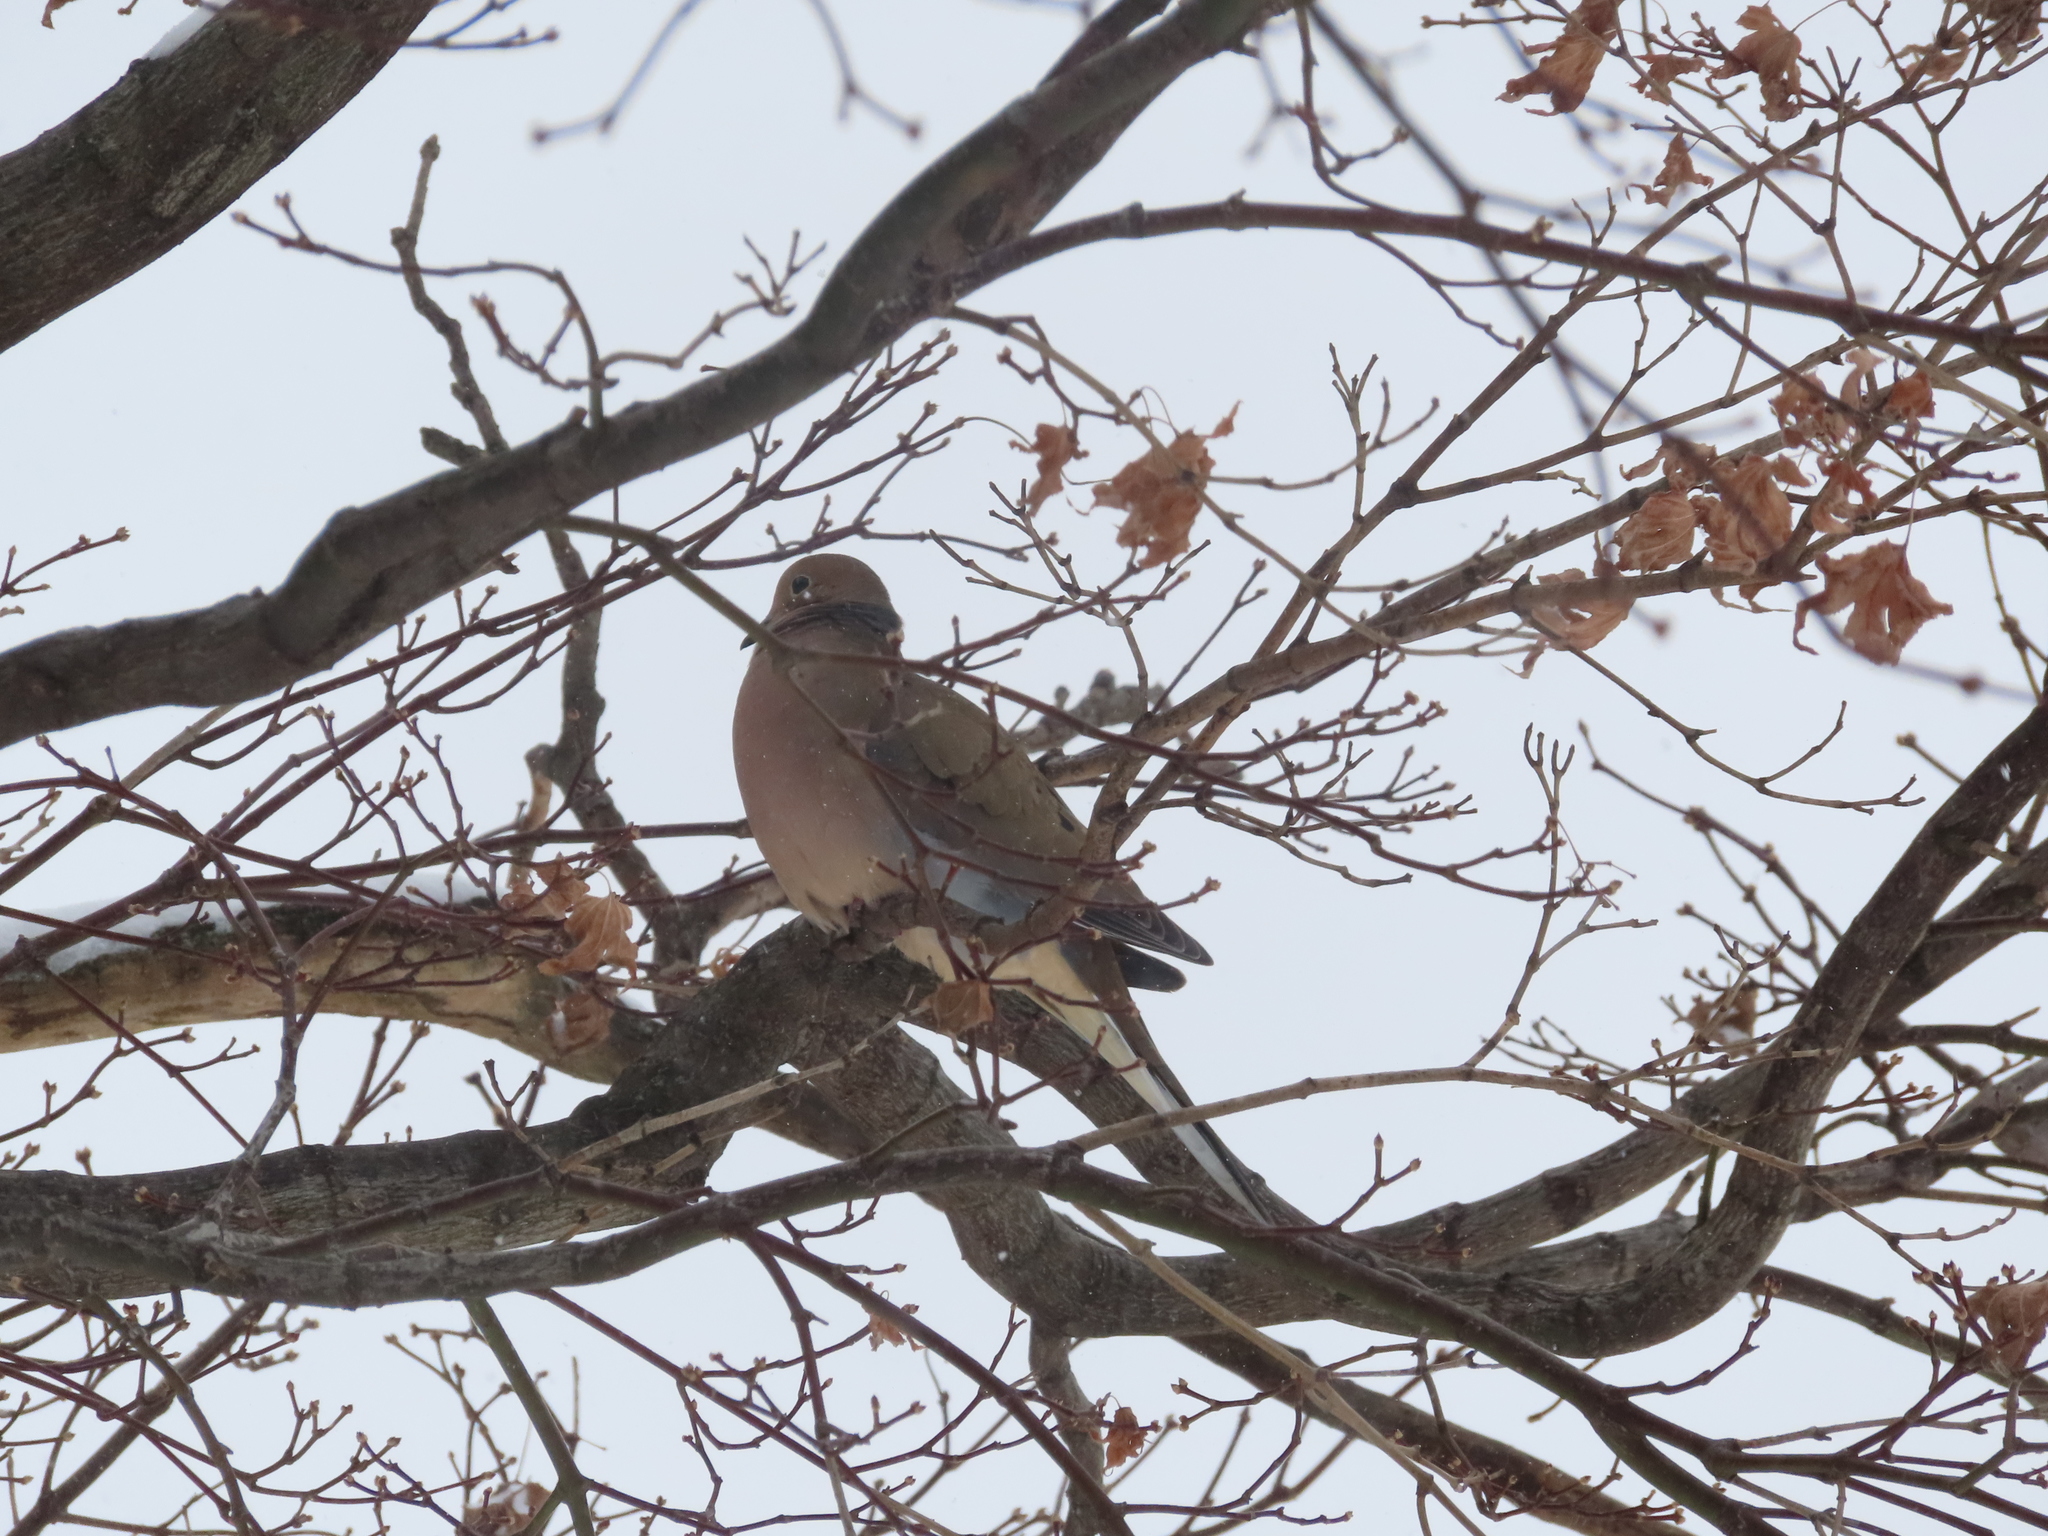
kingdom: Animalia
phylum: Chordata
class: Aves
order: Columbiformes
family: Columbidae
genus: Zenaida
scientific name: Zenaida macroura
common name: Mourning dove
